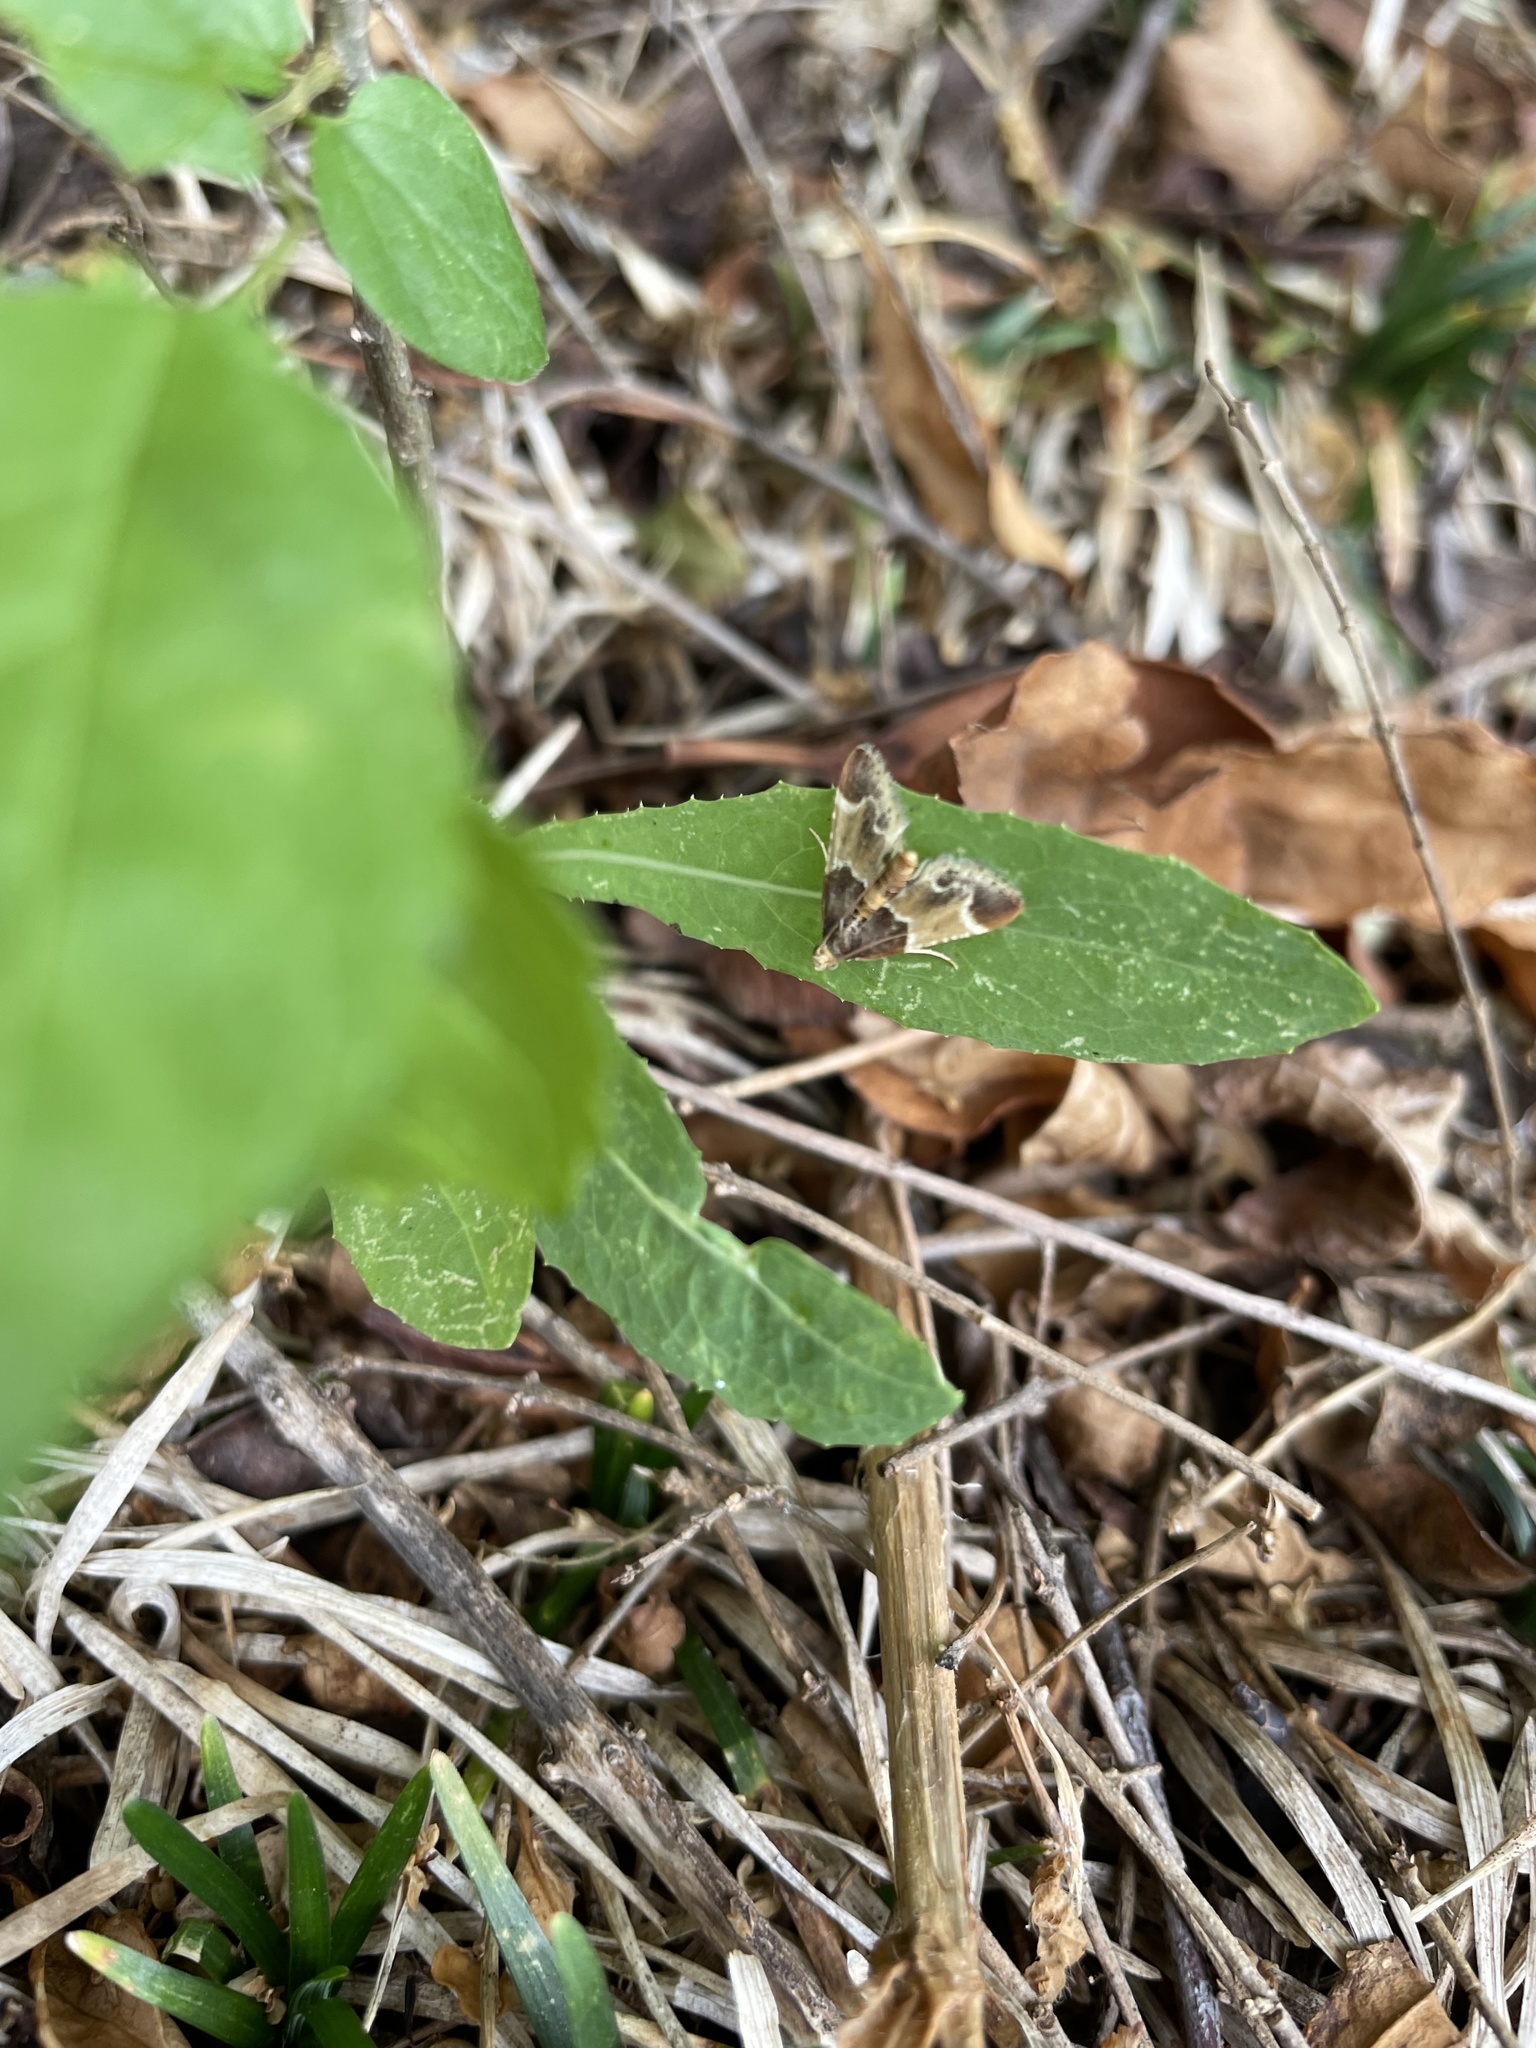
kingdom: Animalia
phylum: Arthropoda
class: Insecta
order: Lepidoptera
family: Pyralidae
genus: Pyralis
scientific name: Pyralis farinalis
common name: Meal moth
